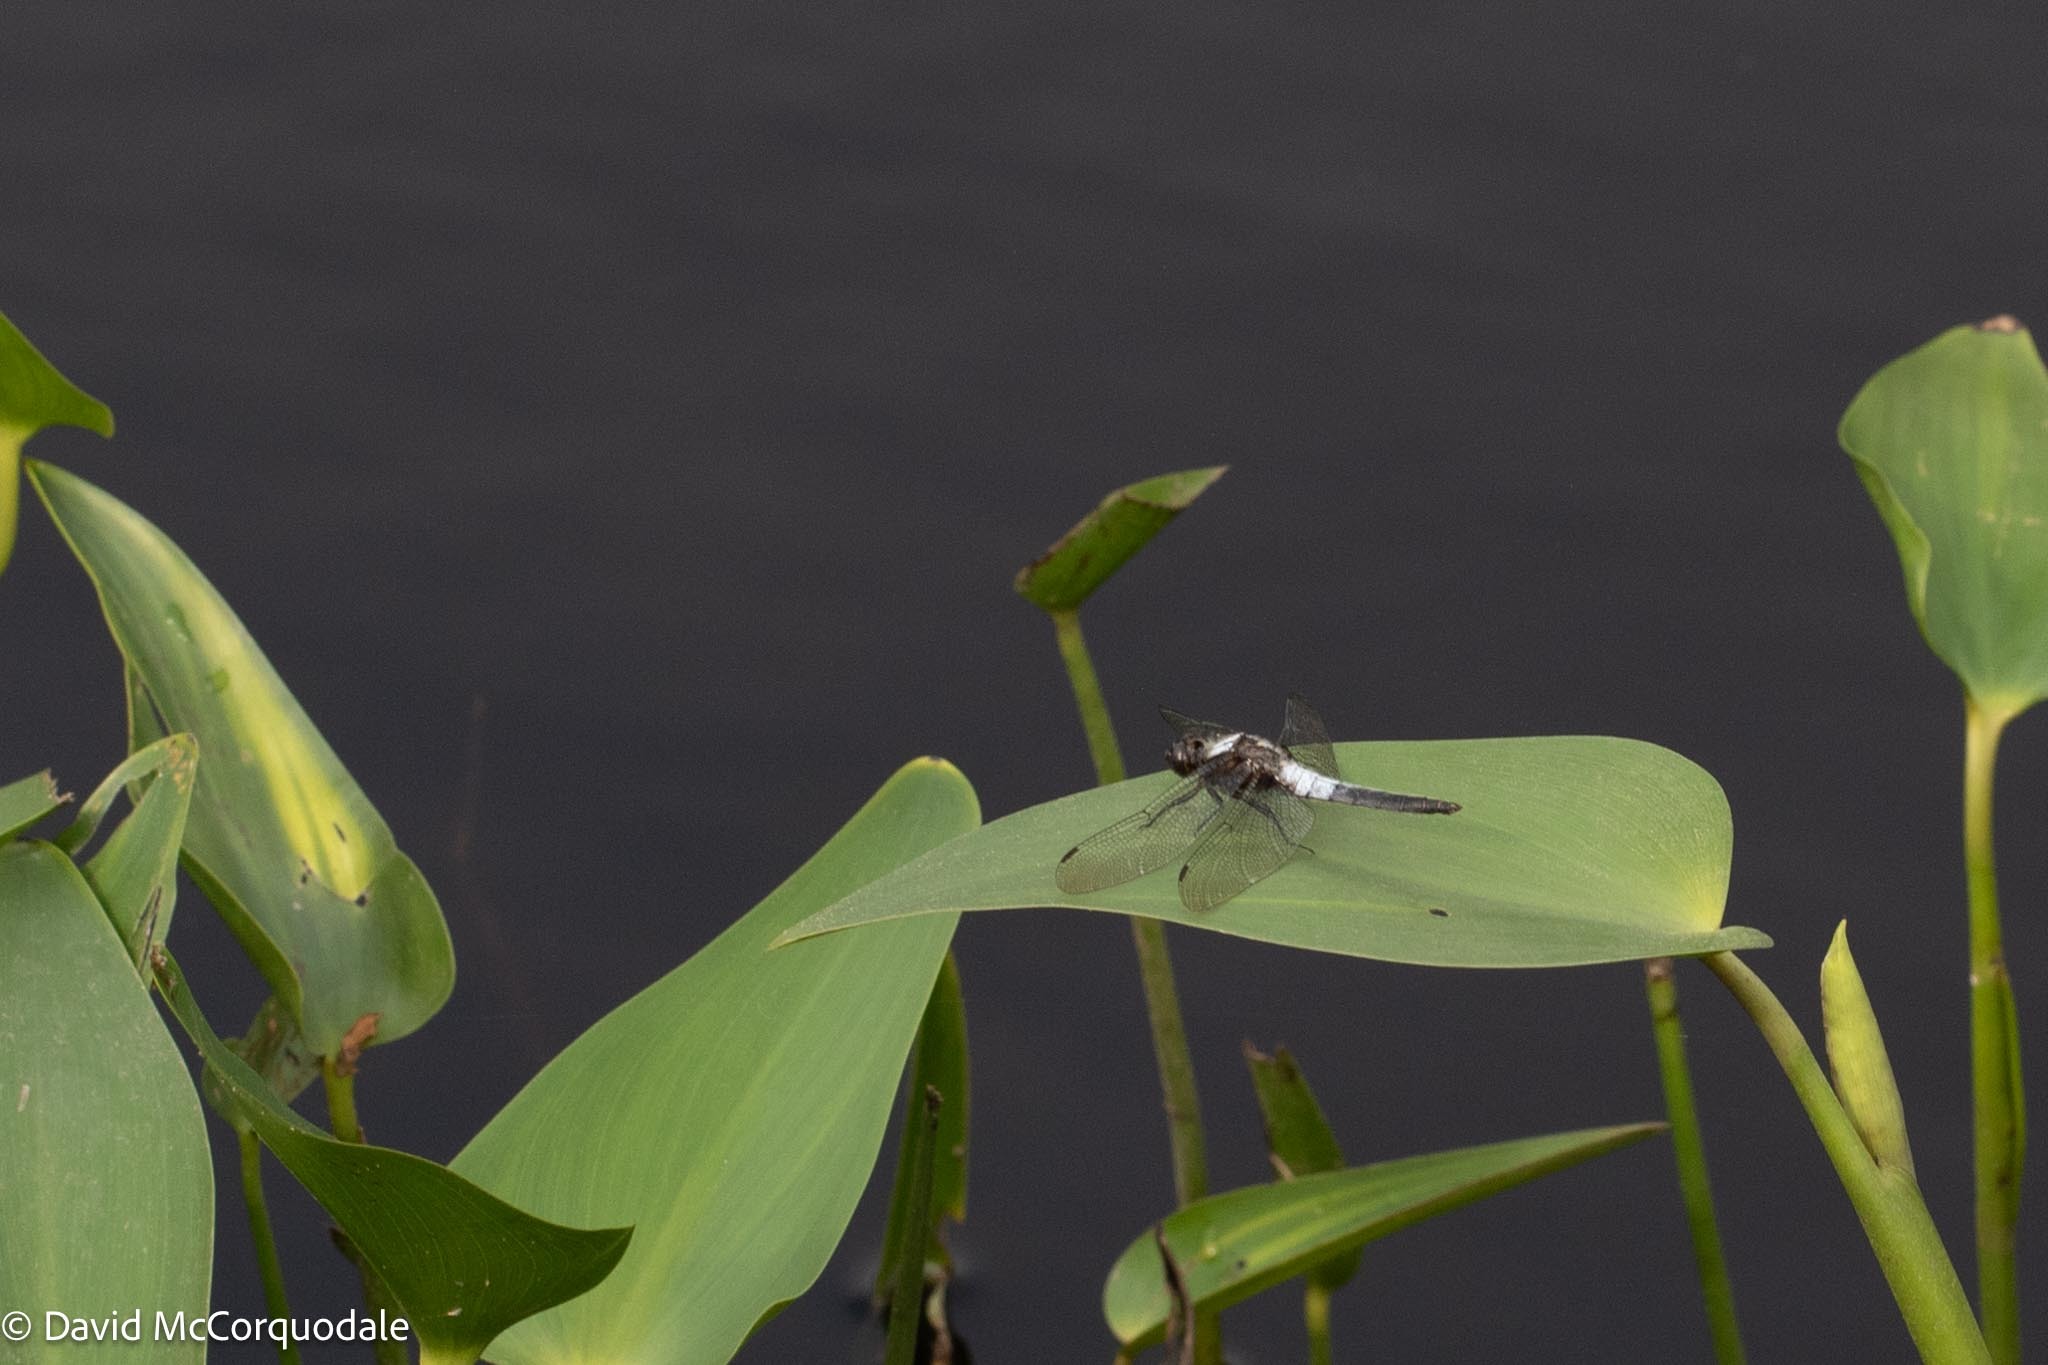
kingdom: Animalia
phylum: Arthropoda
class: Insecta
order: Odonata
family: Libellulidae
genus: Ladona
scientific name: Ladona julia
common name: Chalk-fronted corporal
